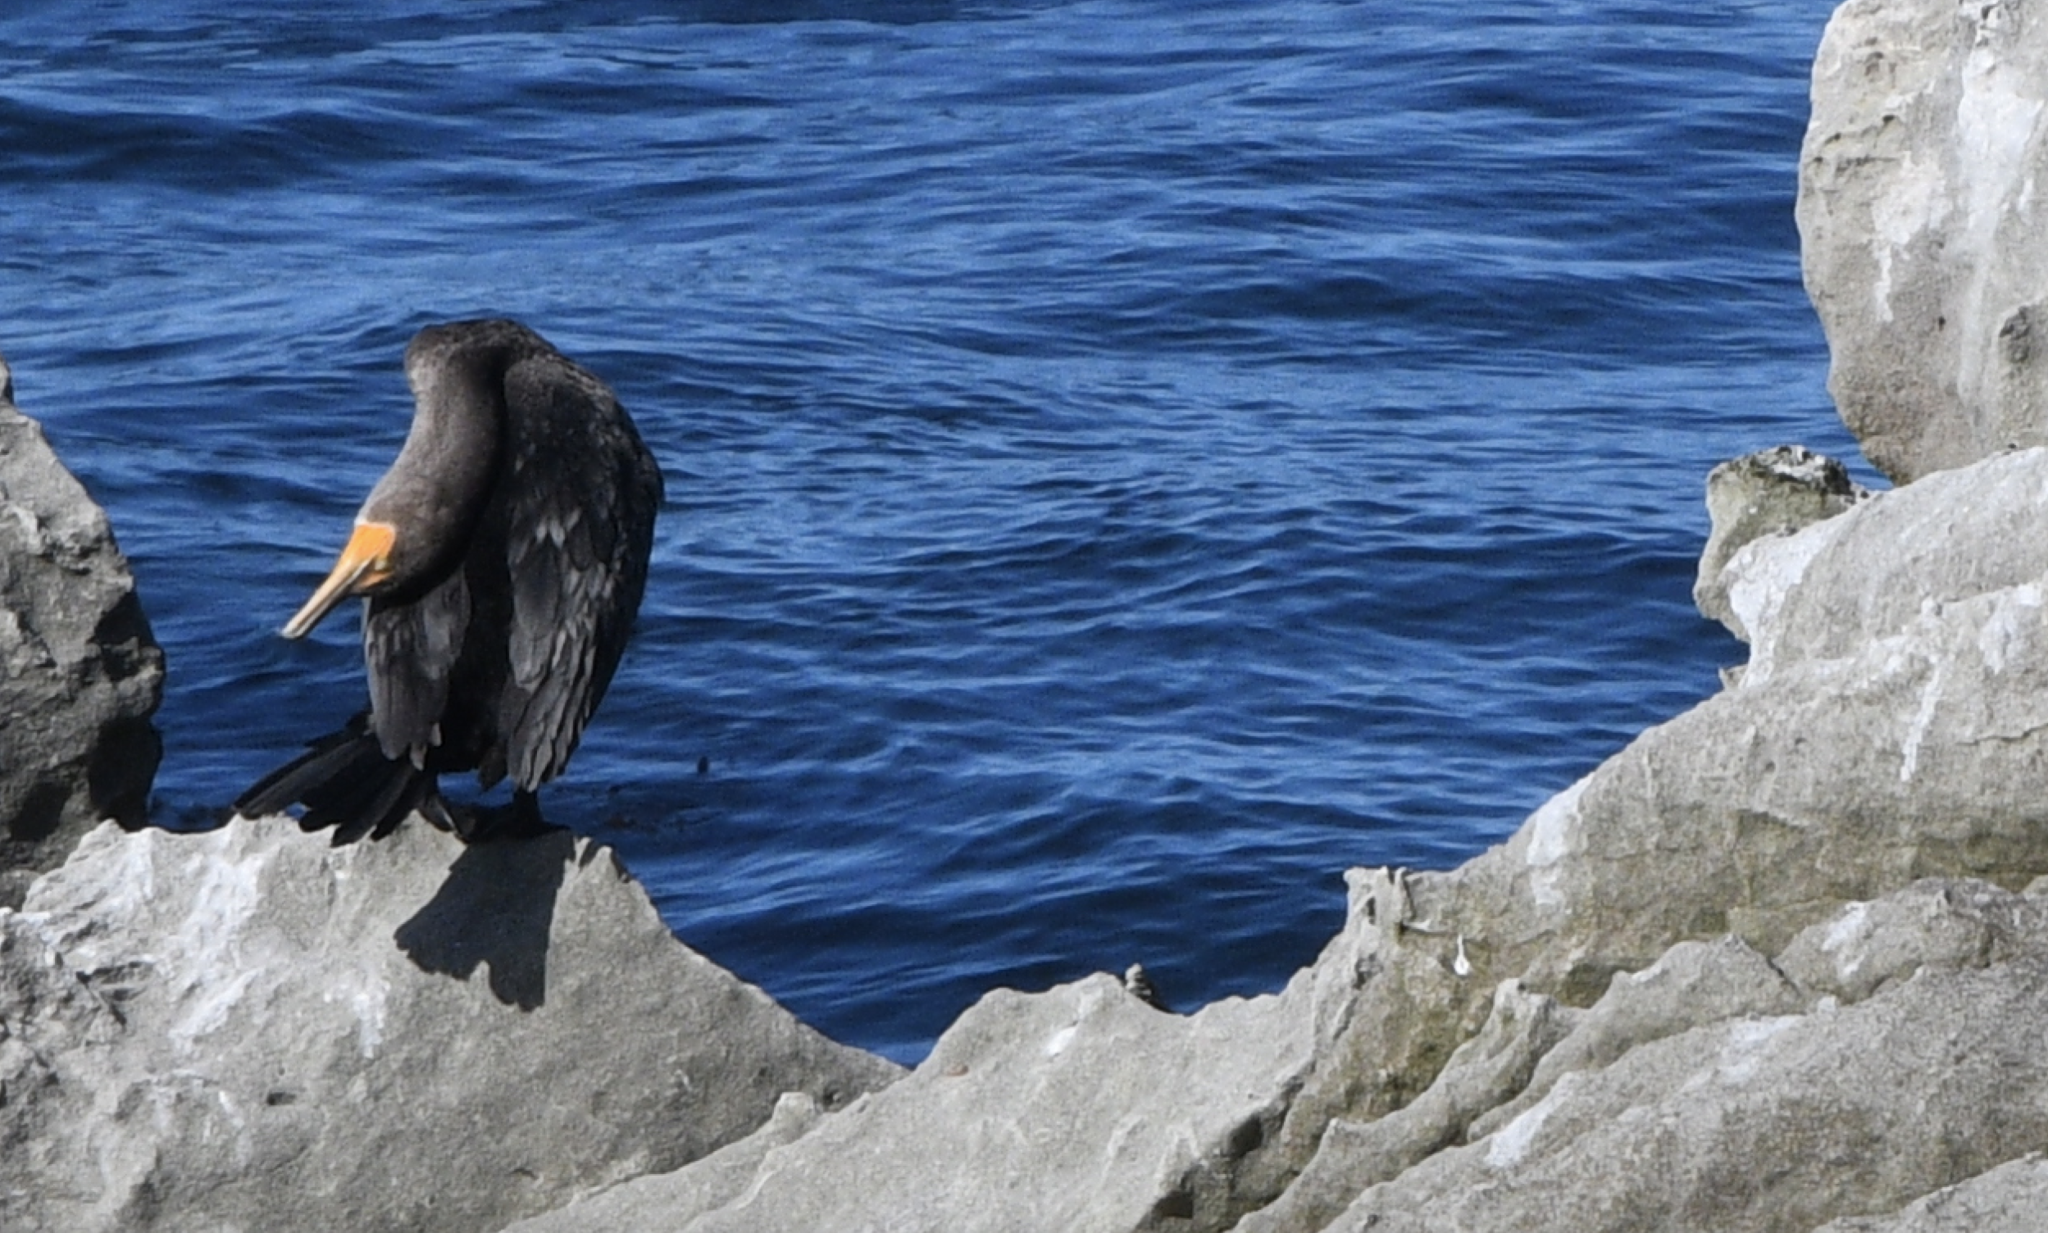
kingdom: Animalia
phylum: Chordata
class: Aves
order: Suliformes
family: Phalacrocoracidae
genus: Phalacrocorax
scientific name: Phalacrocorax auritus
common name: Double-crested cormorant
